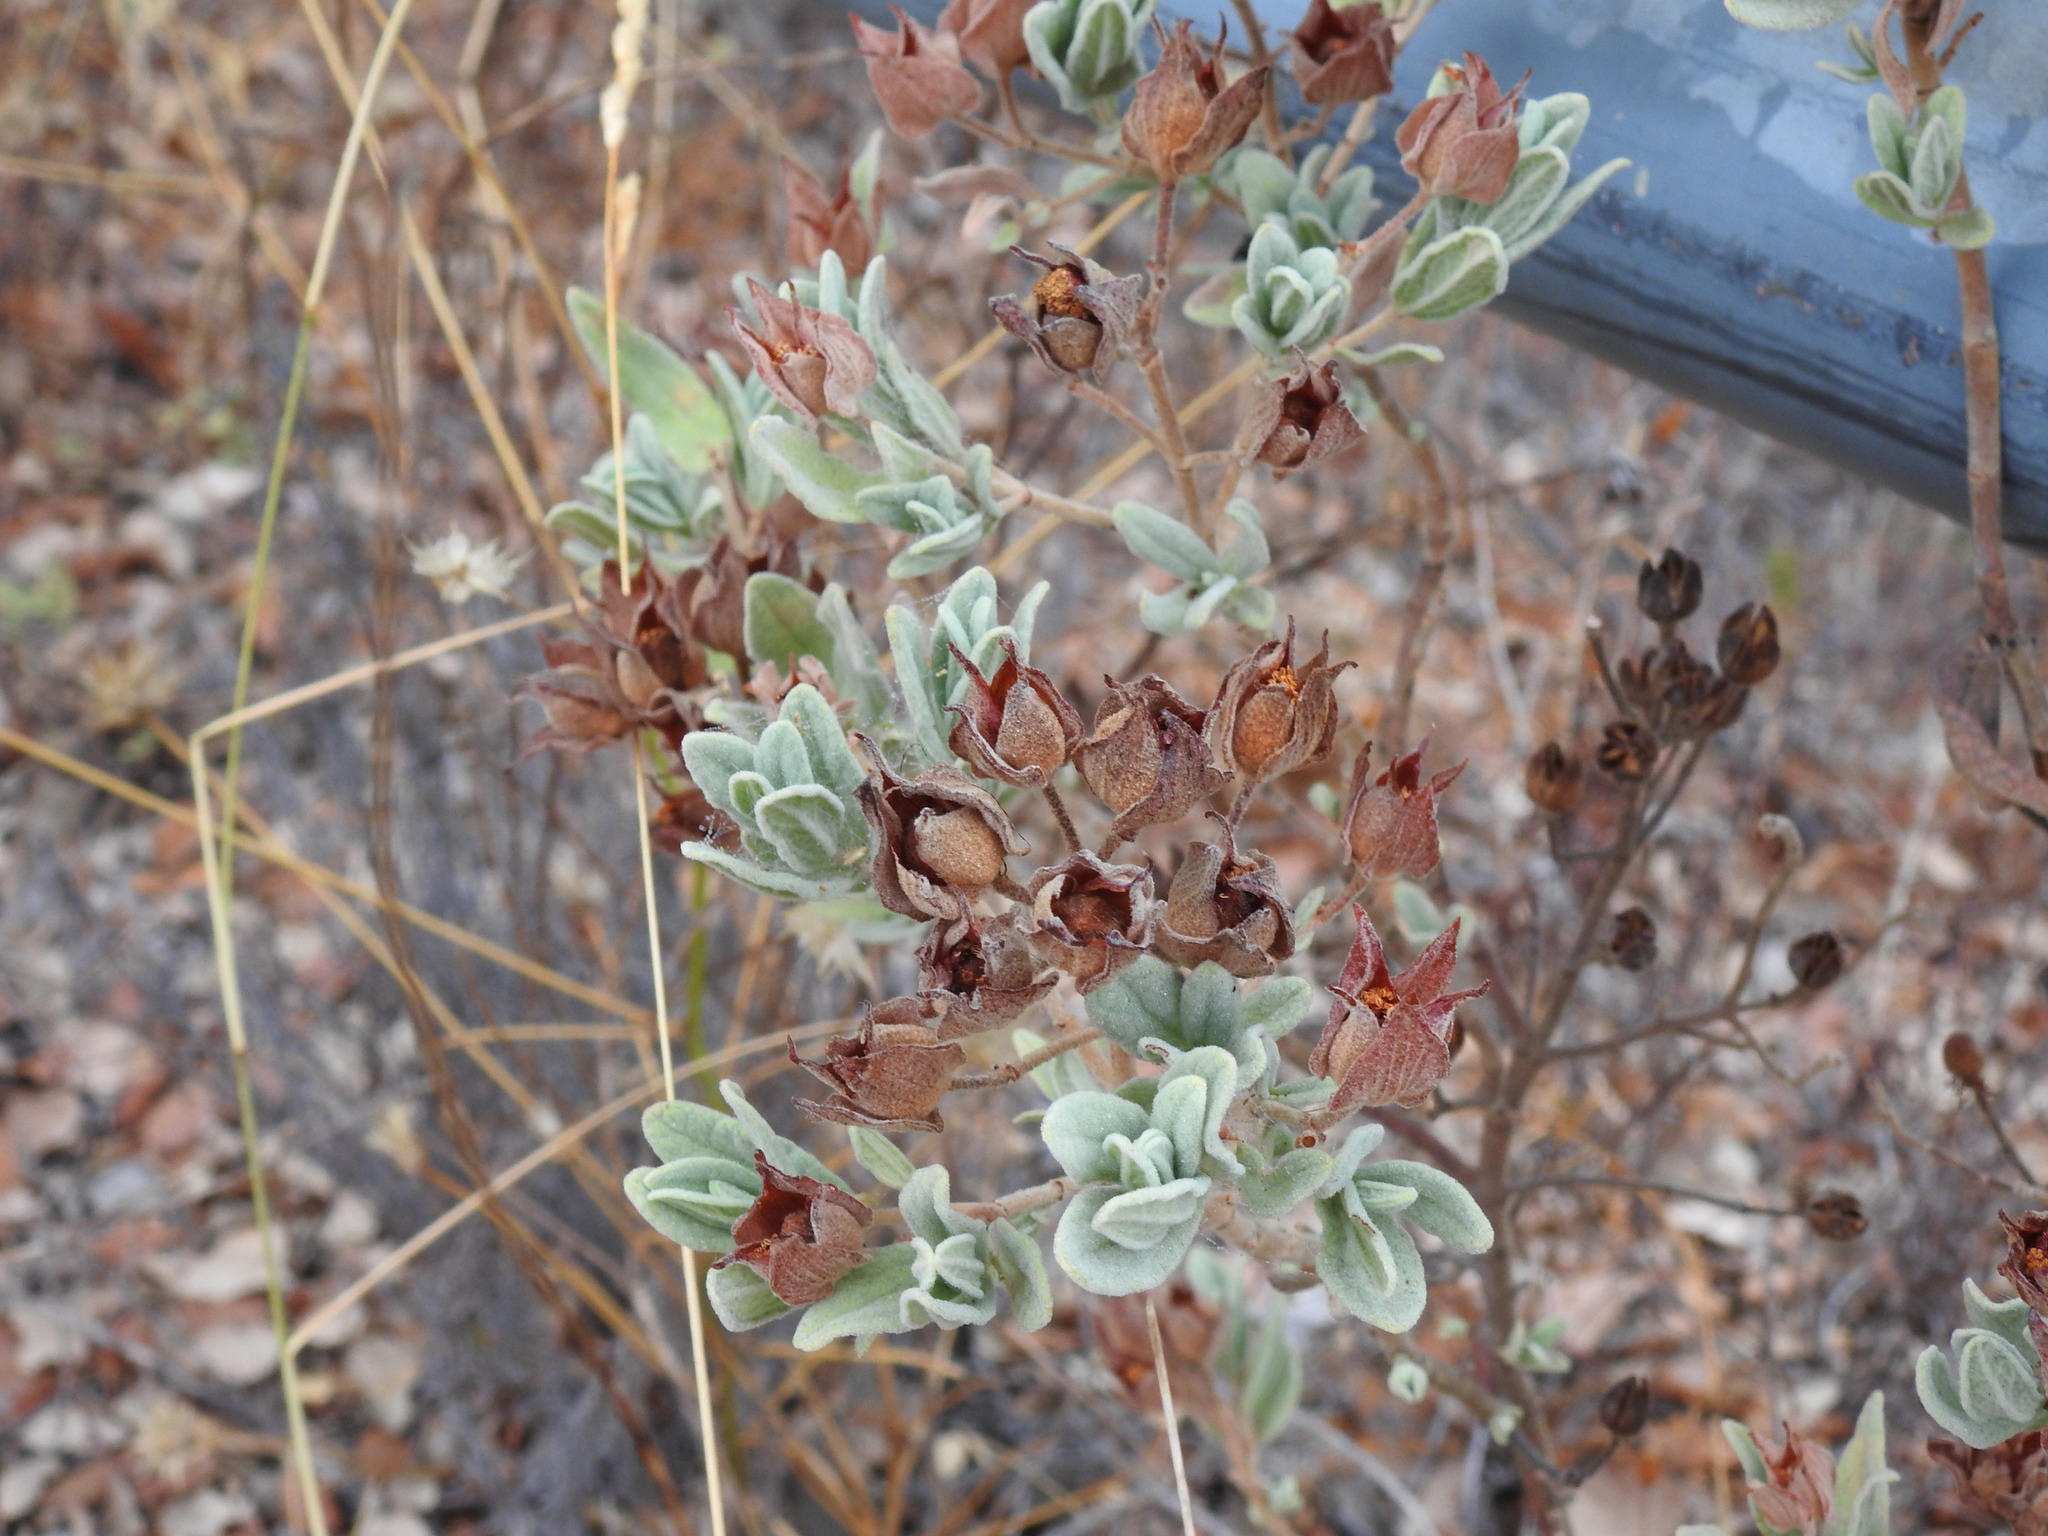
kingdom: Plantae
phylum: Tracheophyta
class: Magnoliopsida
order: Malvales
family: Cistaceae
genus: Cistus
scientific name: Cistus albidus
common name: White-leaf rock-rose
